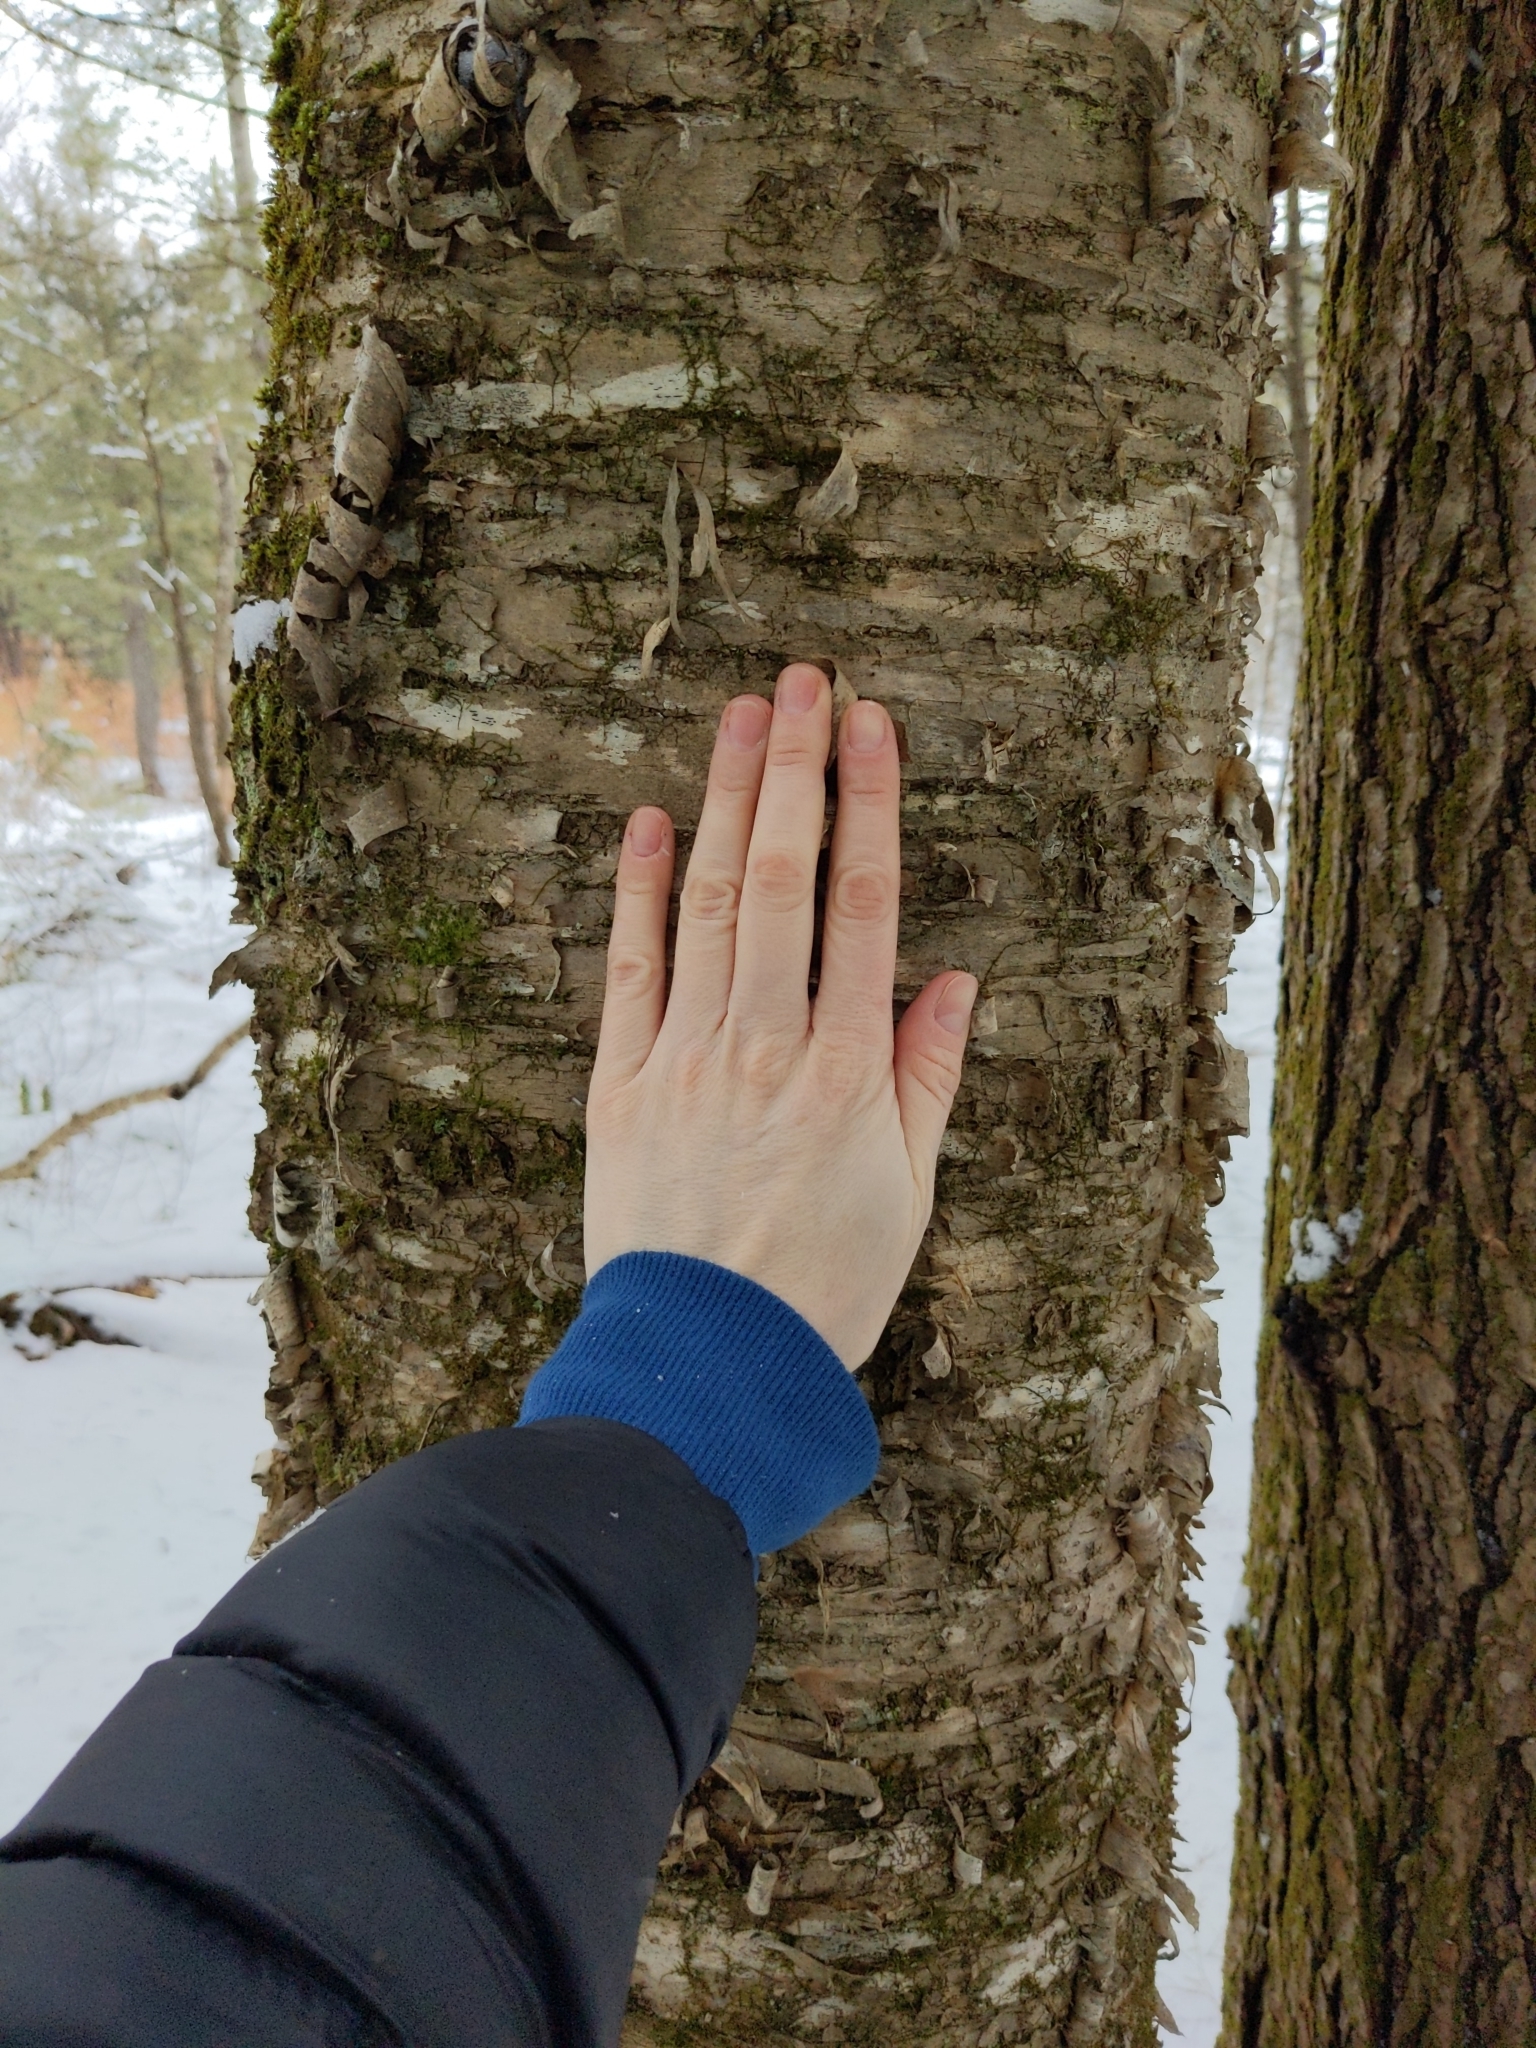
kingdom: Plantae
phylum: Tracheophyta
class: Magnoliopsida
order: Fagales
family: Betulaceae
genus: Betula
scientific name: Betula alleghaniensis
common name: Yellow birch
